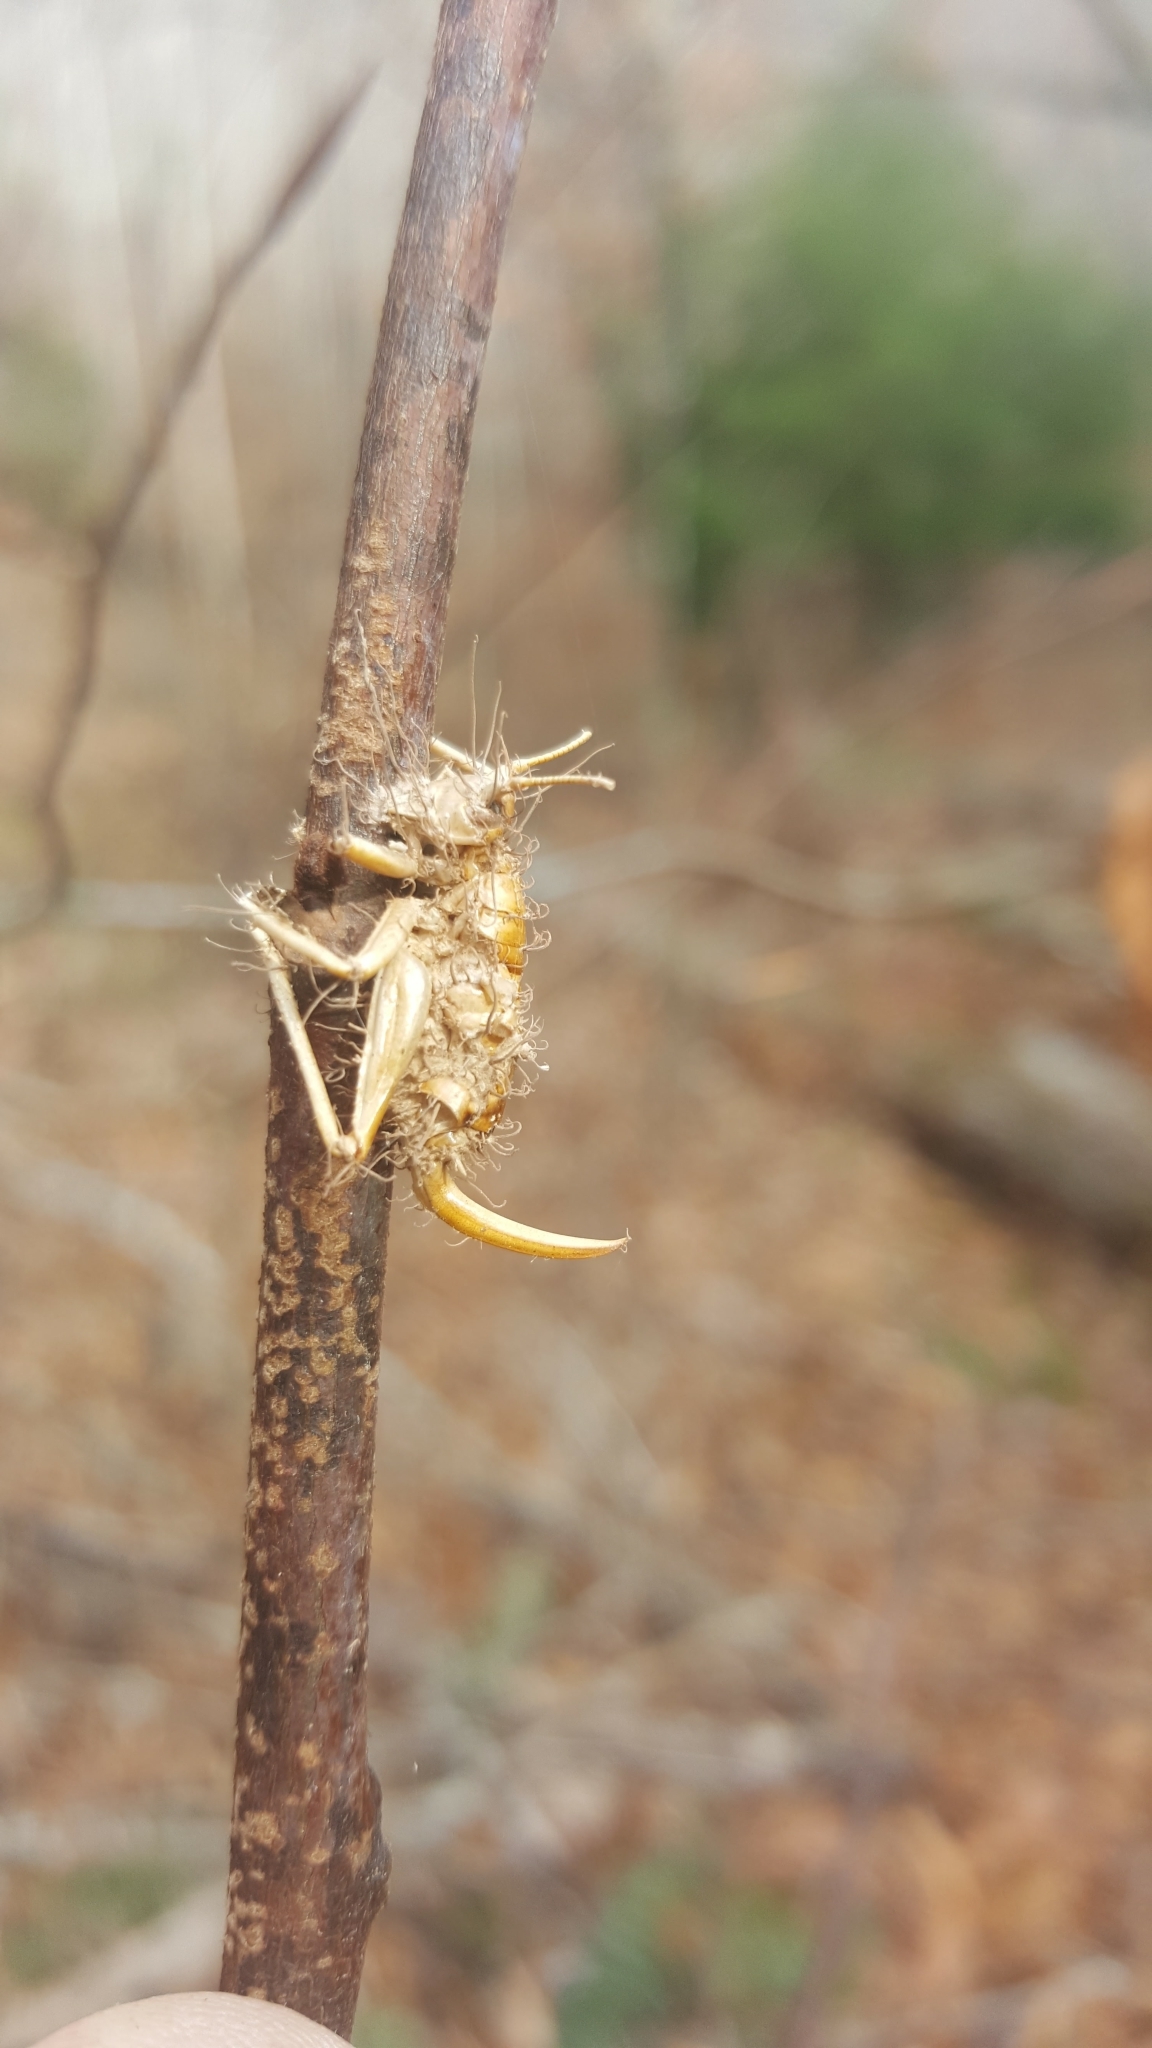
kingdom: Fungi
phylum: Ascomycota
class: Sordariomycetes
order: Hypocreales
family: Cordycipitaceae
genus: Akanthomyces
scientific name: Akanthomyces
